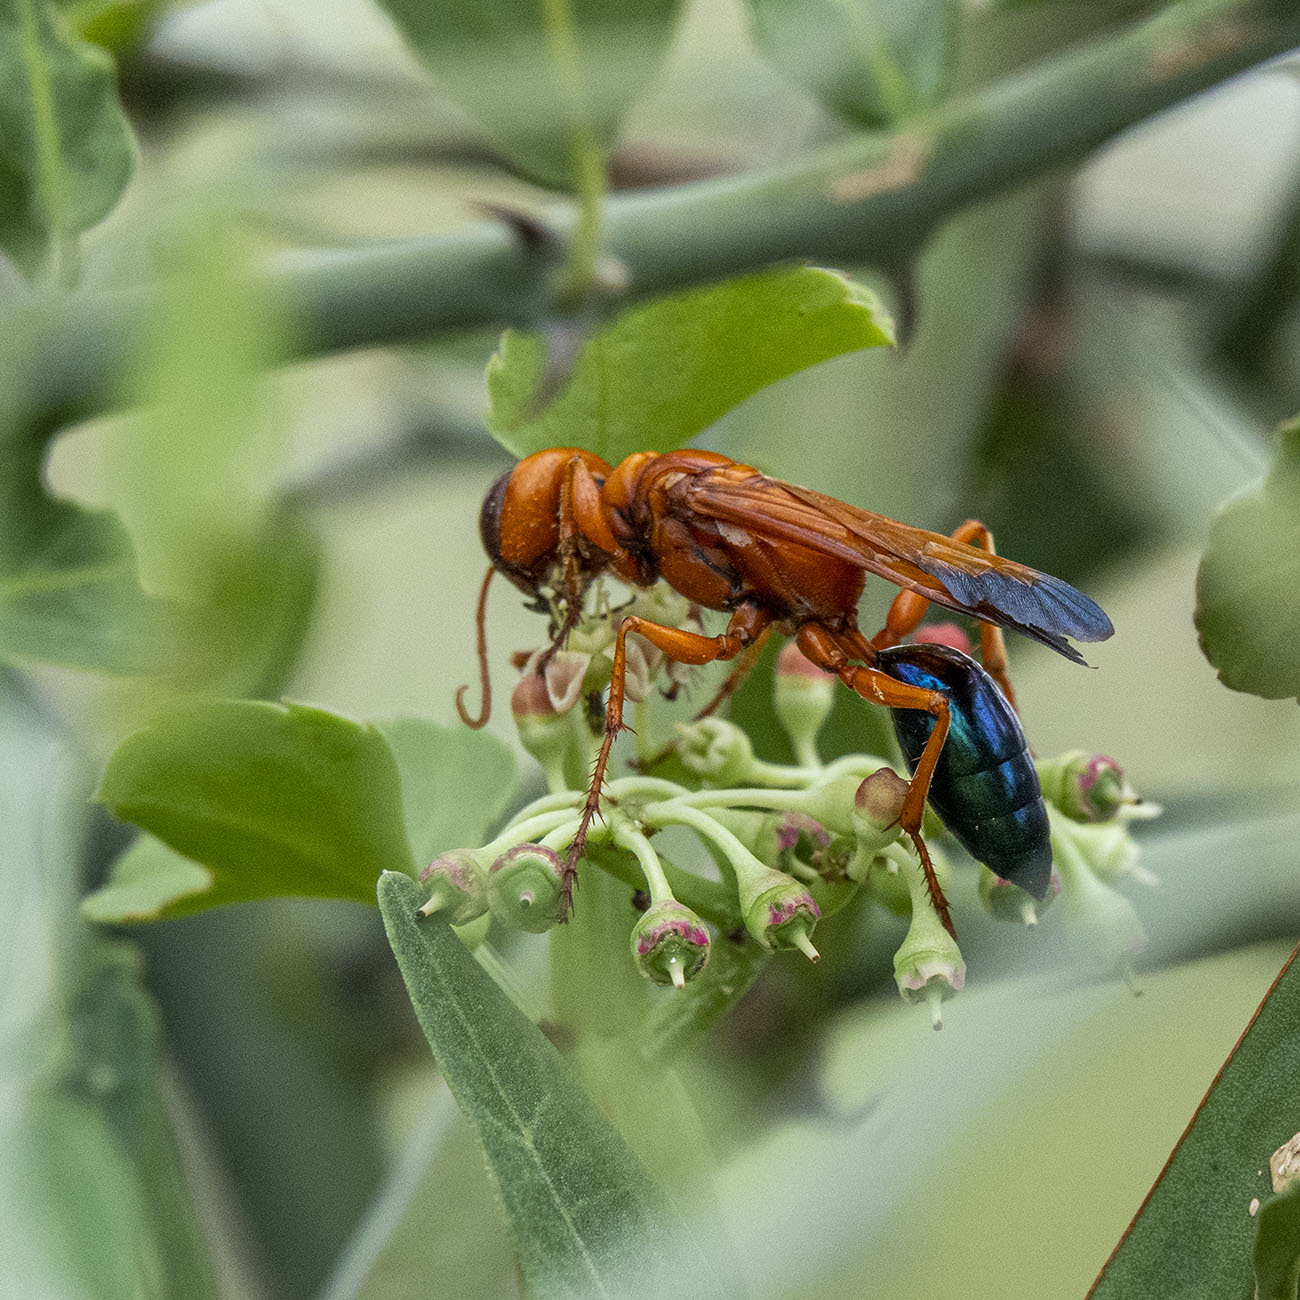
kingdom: Animalia
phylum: Arthropoda
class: Insecta
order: Hymenoptera
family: Sphecidae
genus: Chlorion
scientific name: Chlorion splendidum
